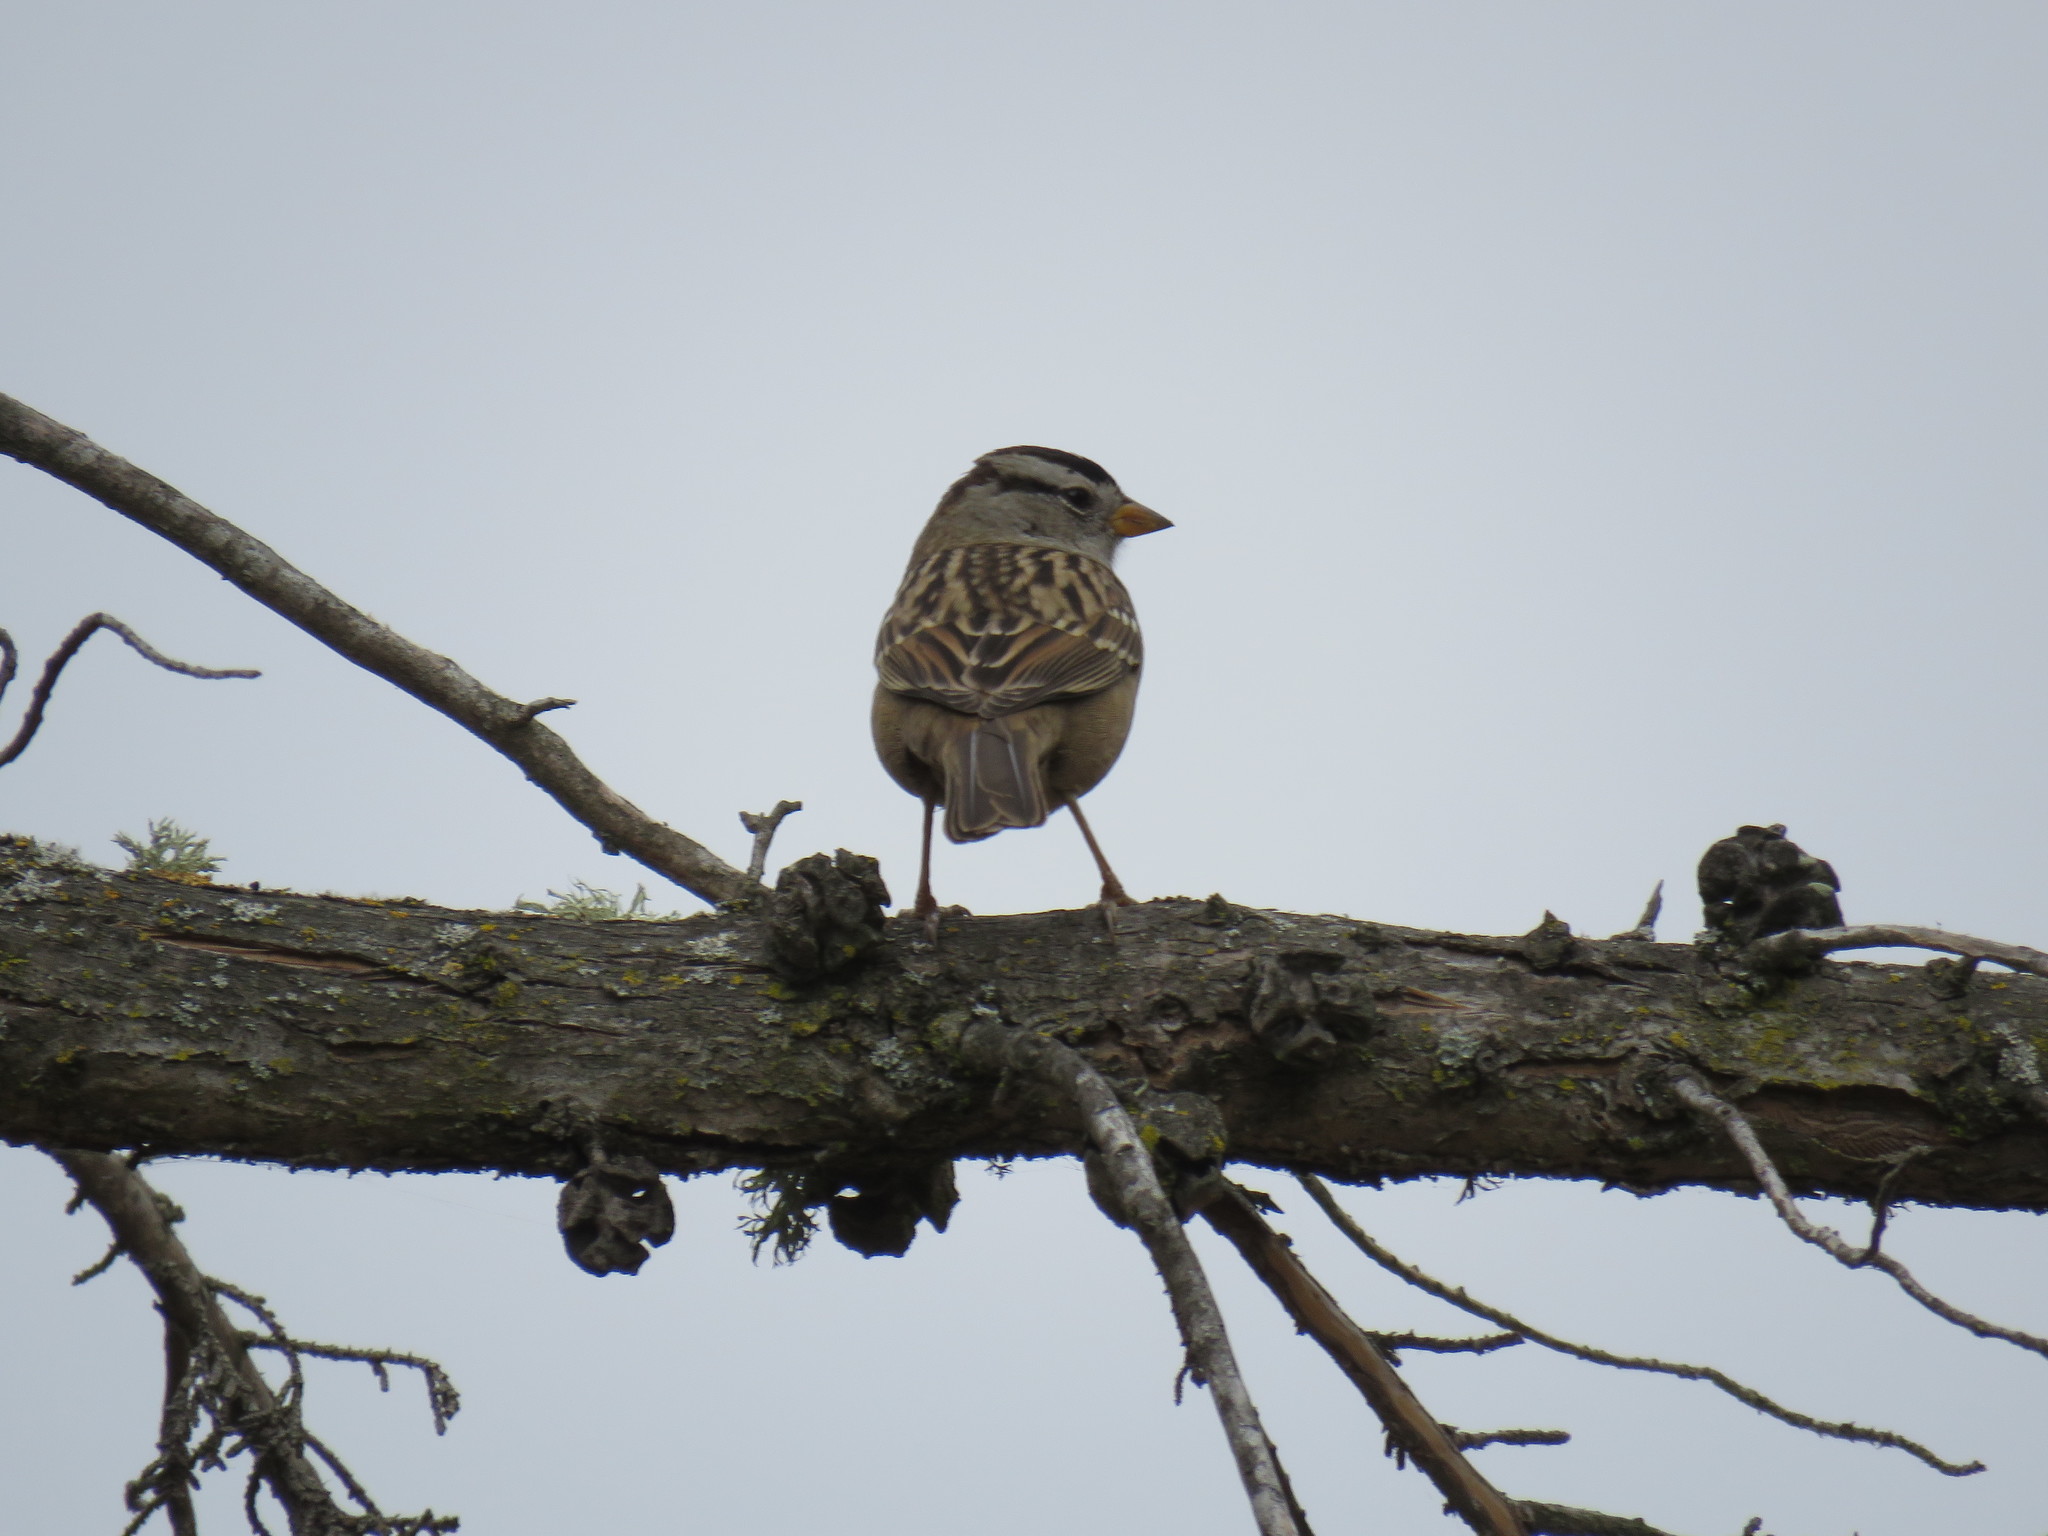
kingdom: Animalia
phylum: Chordata
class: Aves
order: Passeriformes
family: Passerellidae
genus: Zonotrichia
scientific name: Zonotrichia leucophrys
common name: White-crowned sparrow
